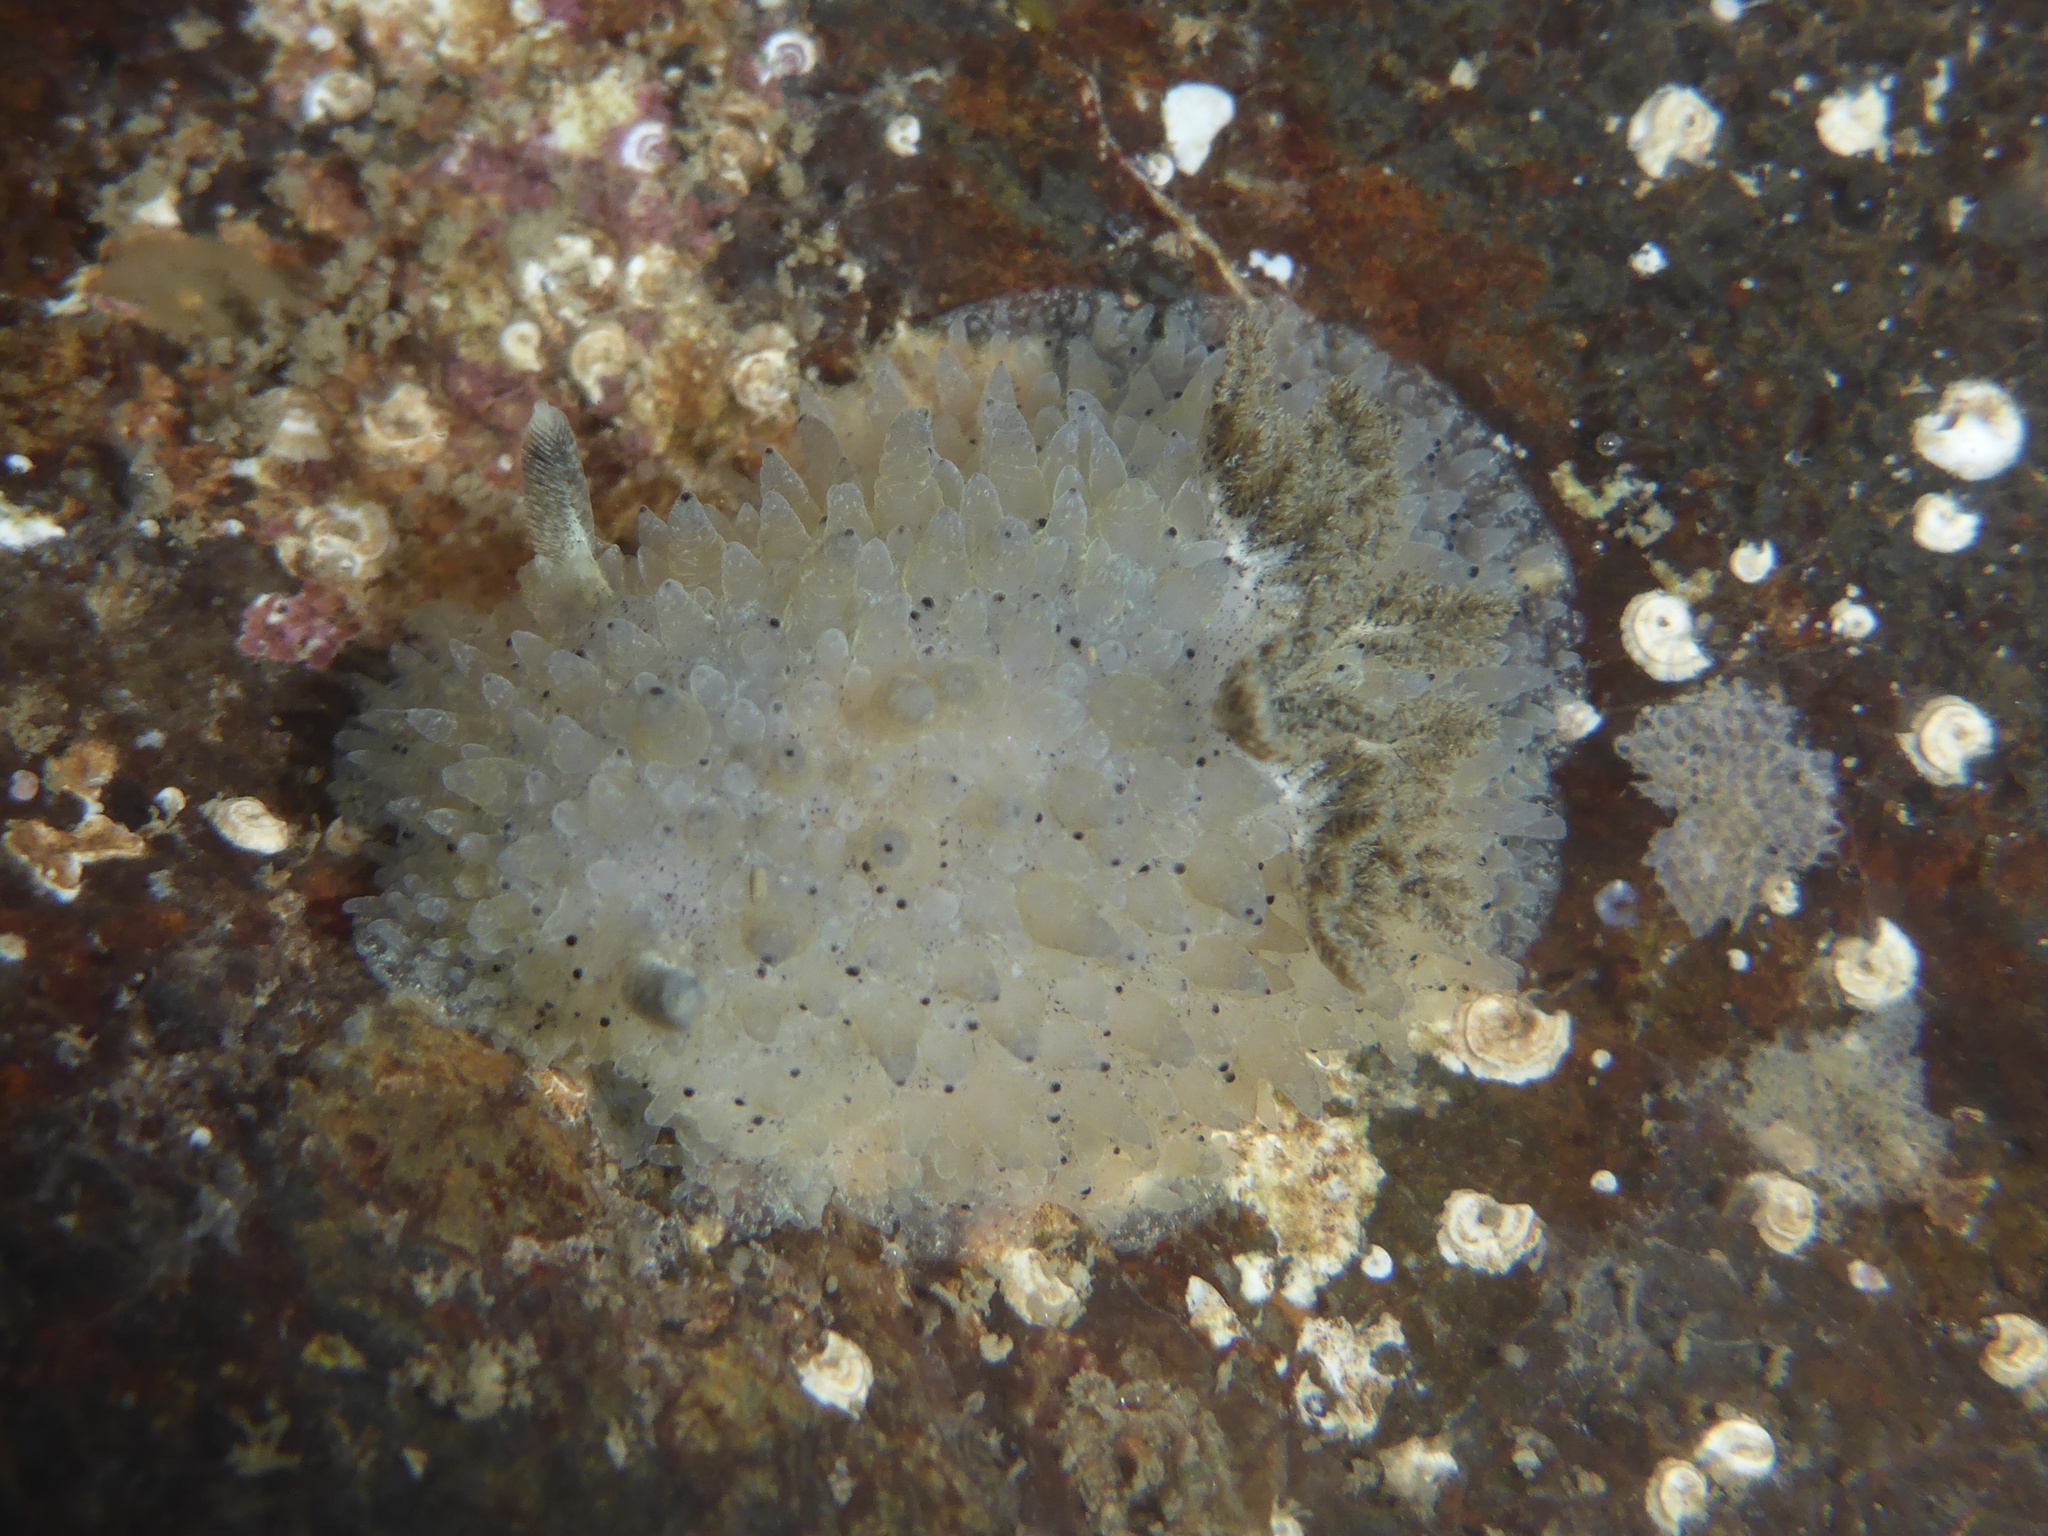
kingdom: Animalia
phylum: Mollusca
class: Gastropoda
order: Nudibranchia
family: Onchidorididae
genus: Acanthodoris
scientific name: Acanthodoris rhodoceras
